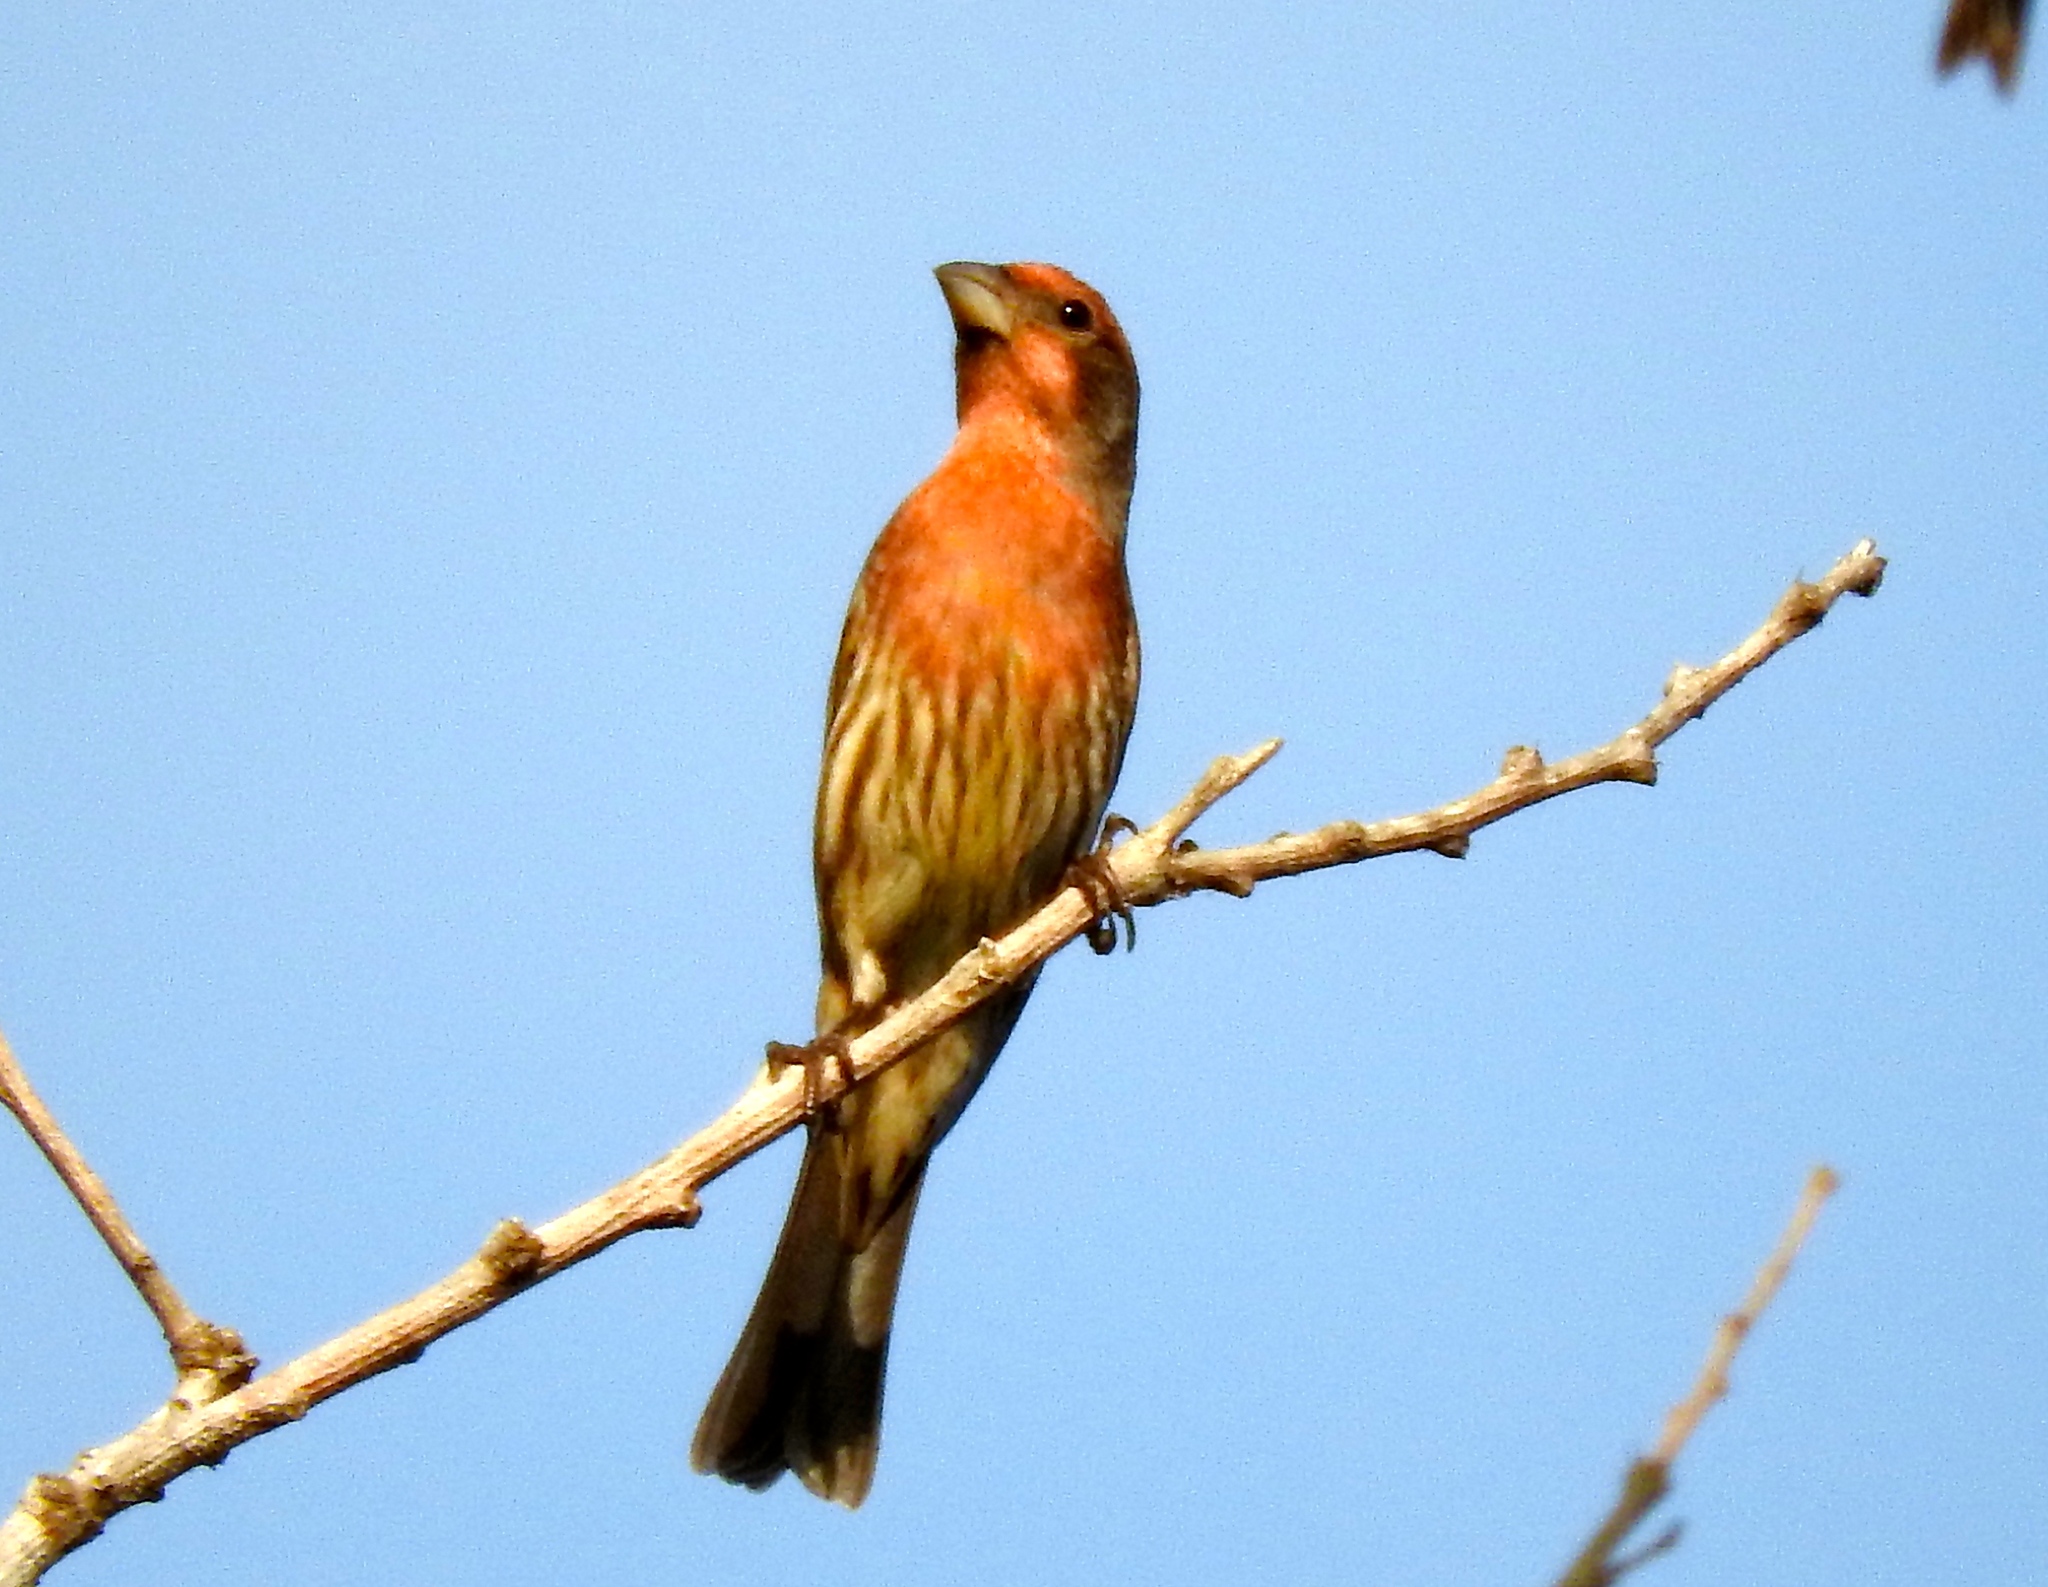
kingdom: Animalia
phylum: Chordata
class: Aves
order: Passeriformes
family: Fringillidae
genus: Haemorhous
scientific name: Haemorhous mexicanus
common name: House finch
